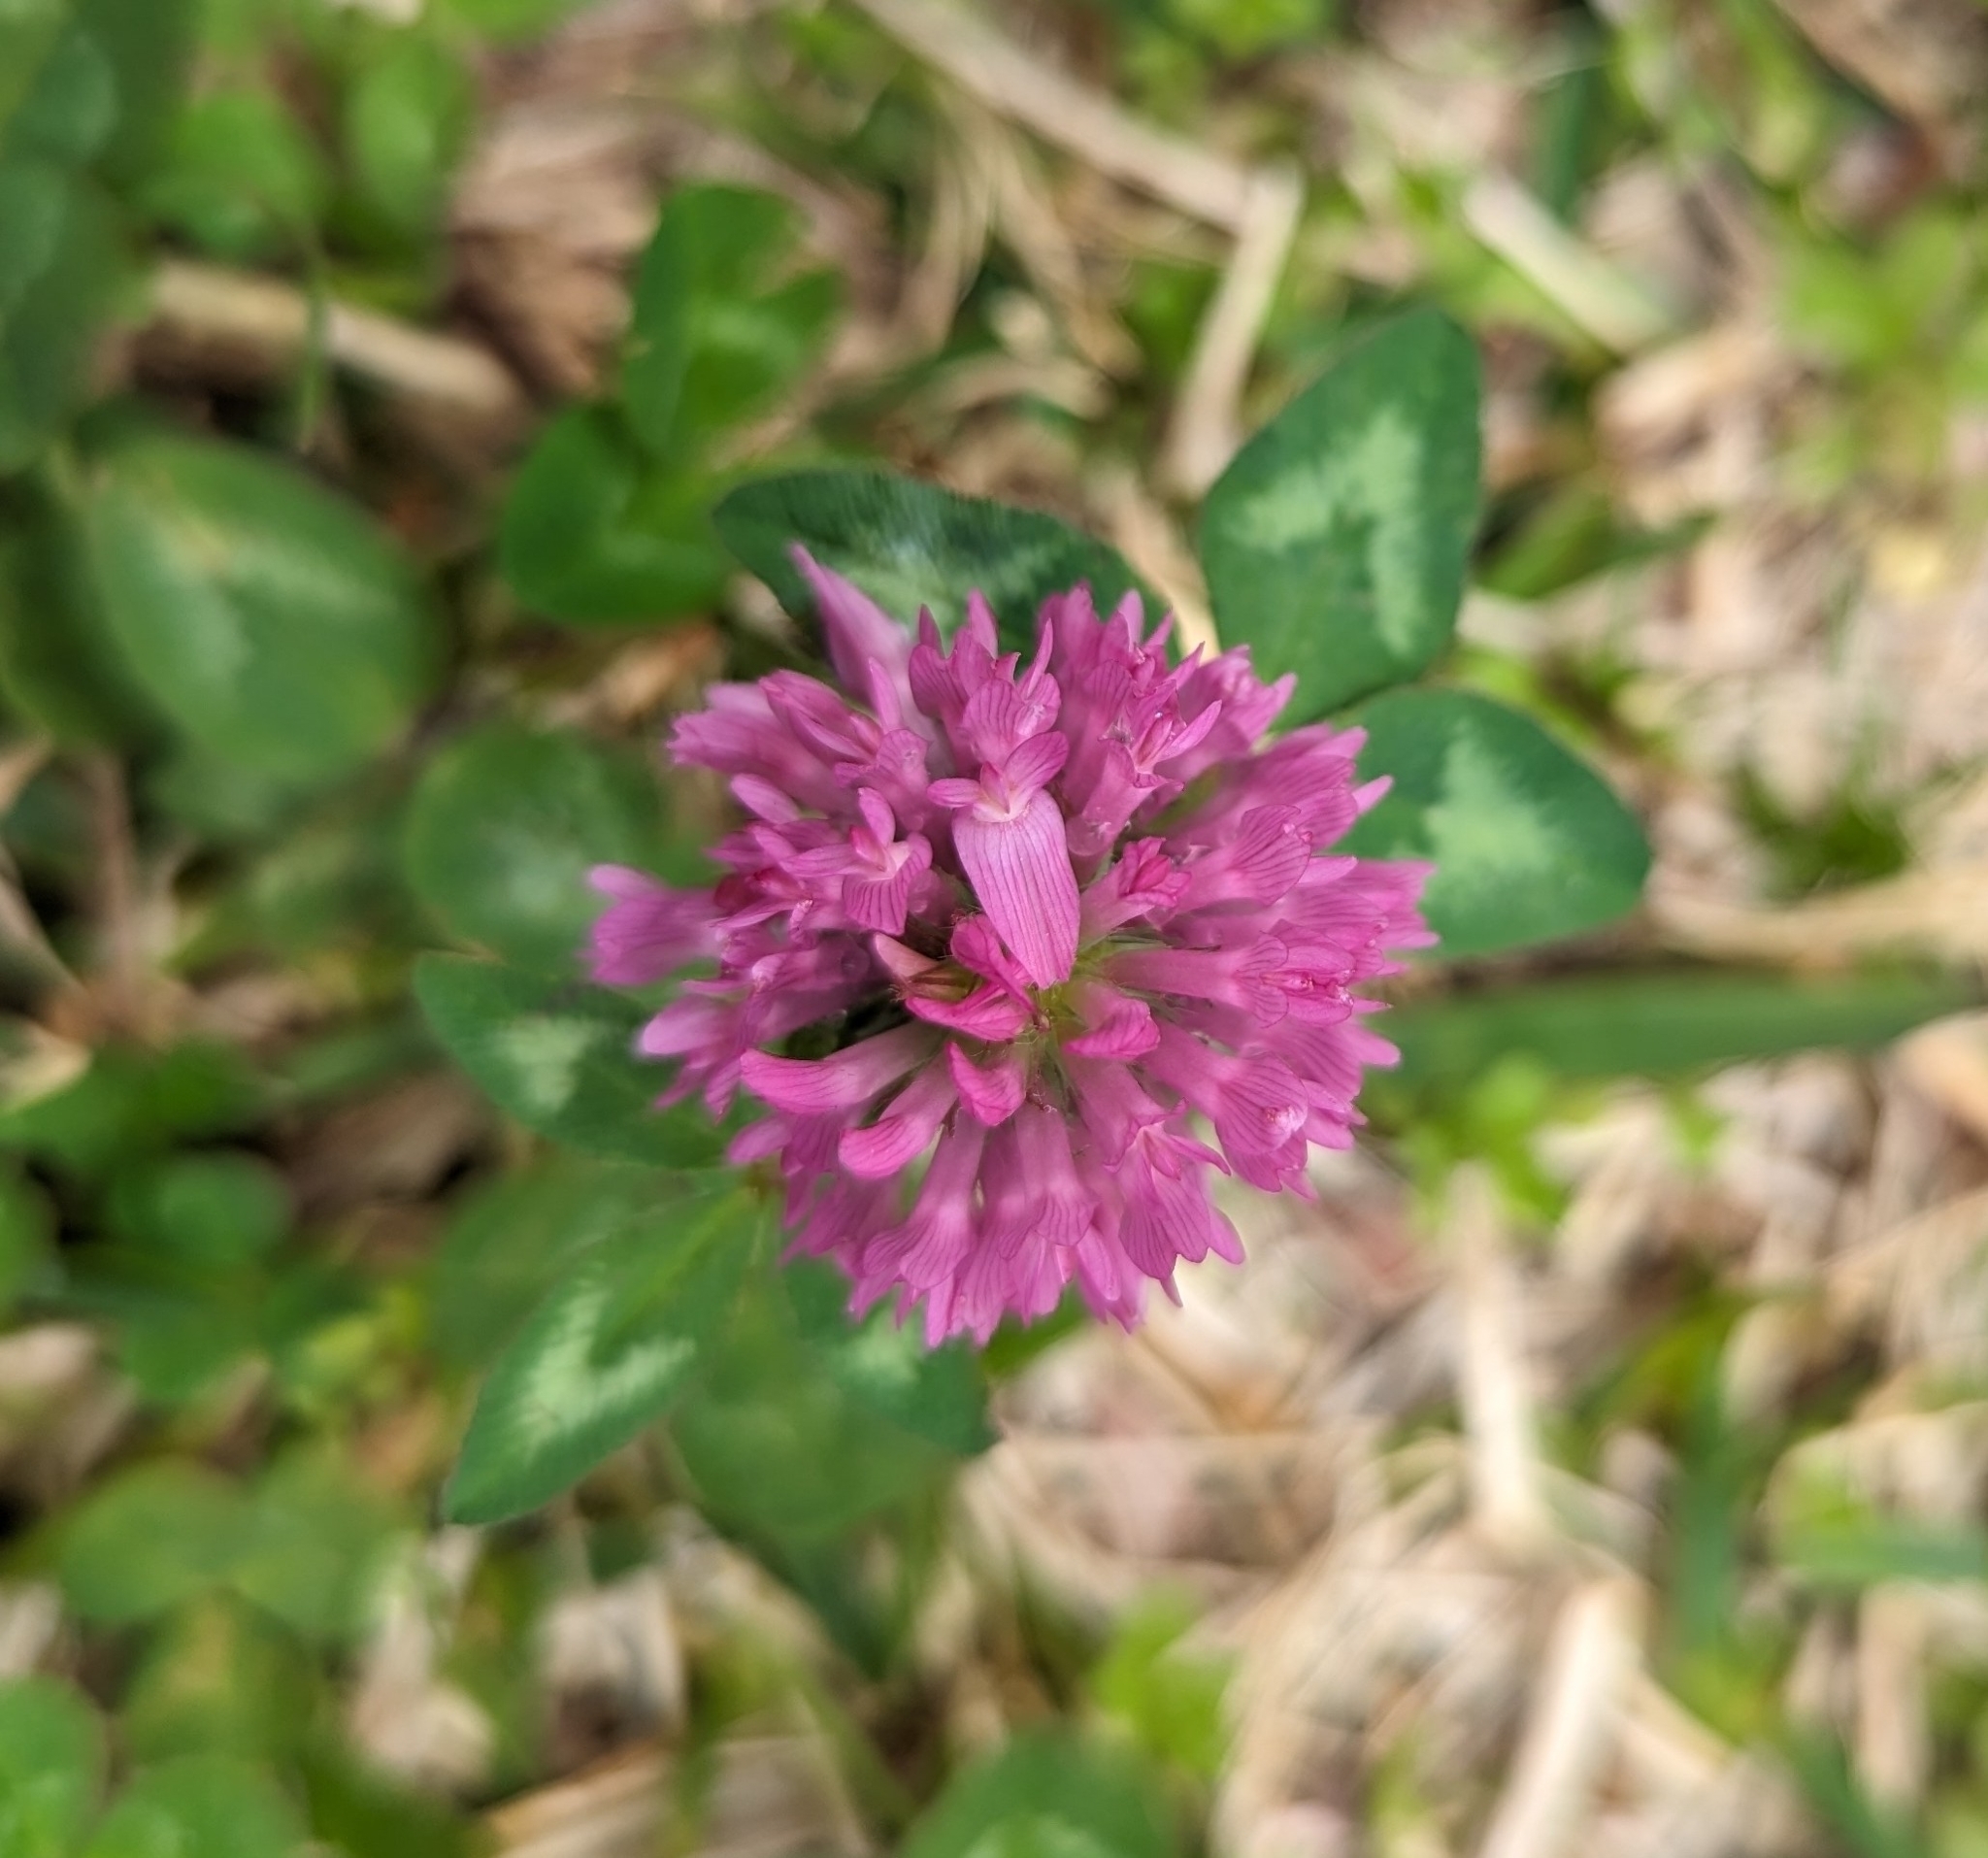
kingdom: Plantae
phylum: Tracheophyta
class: Magnoliopsida
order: Fabales
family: Fabaceae
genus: Trifolium
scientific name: Trifolium pratense
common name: Red clover
